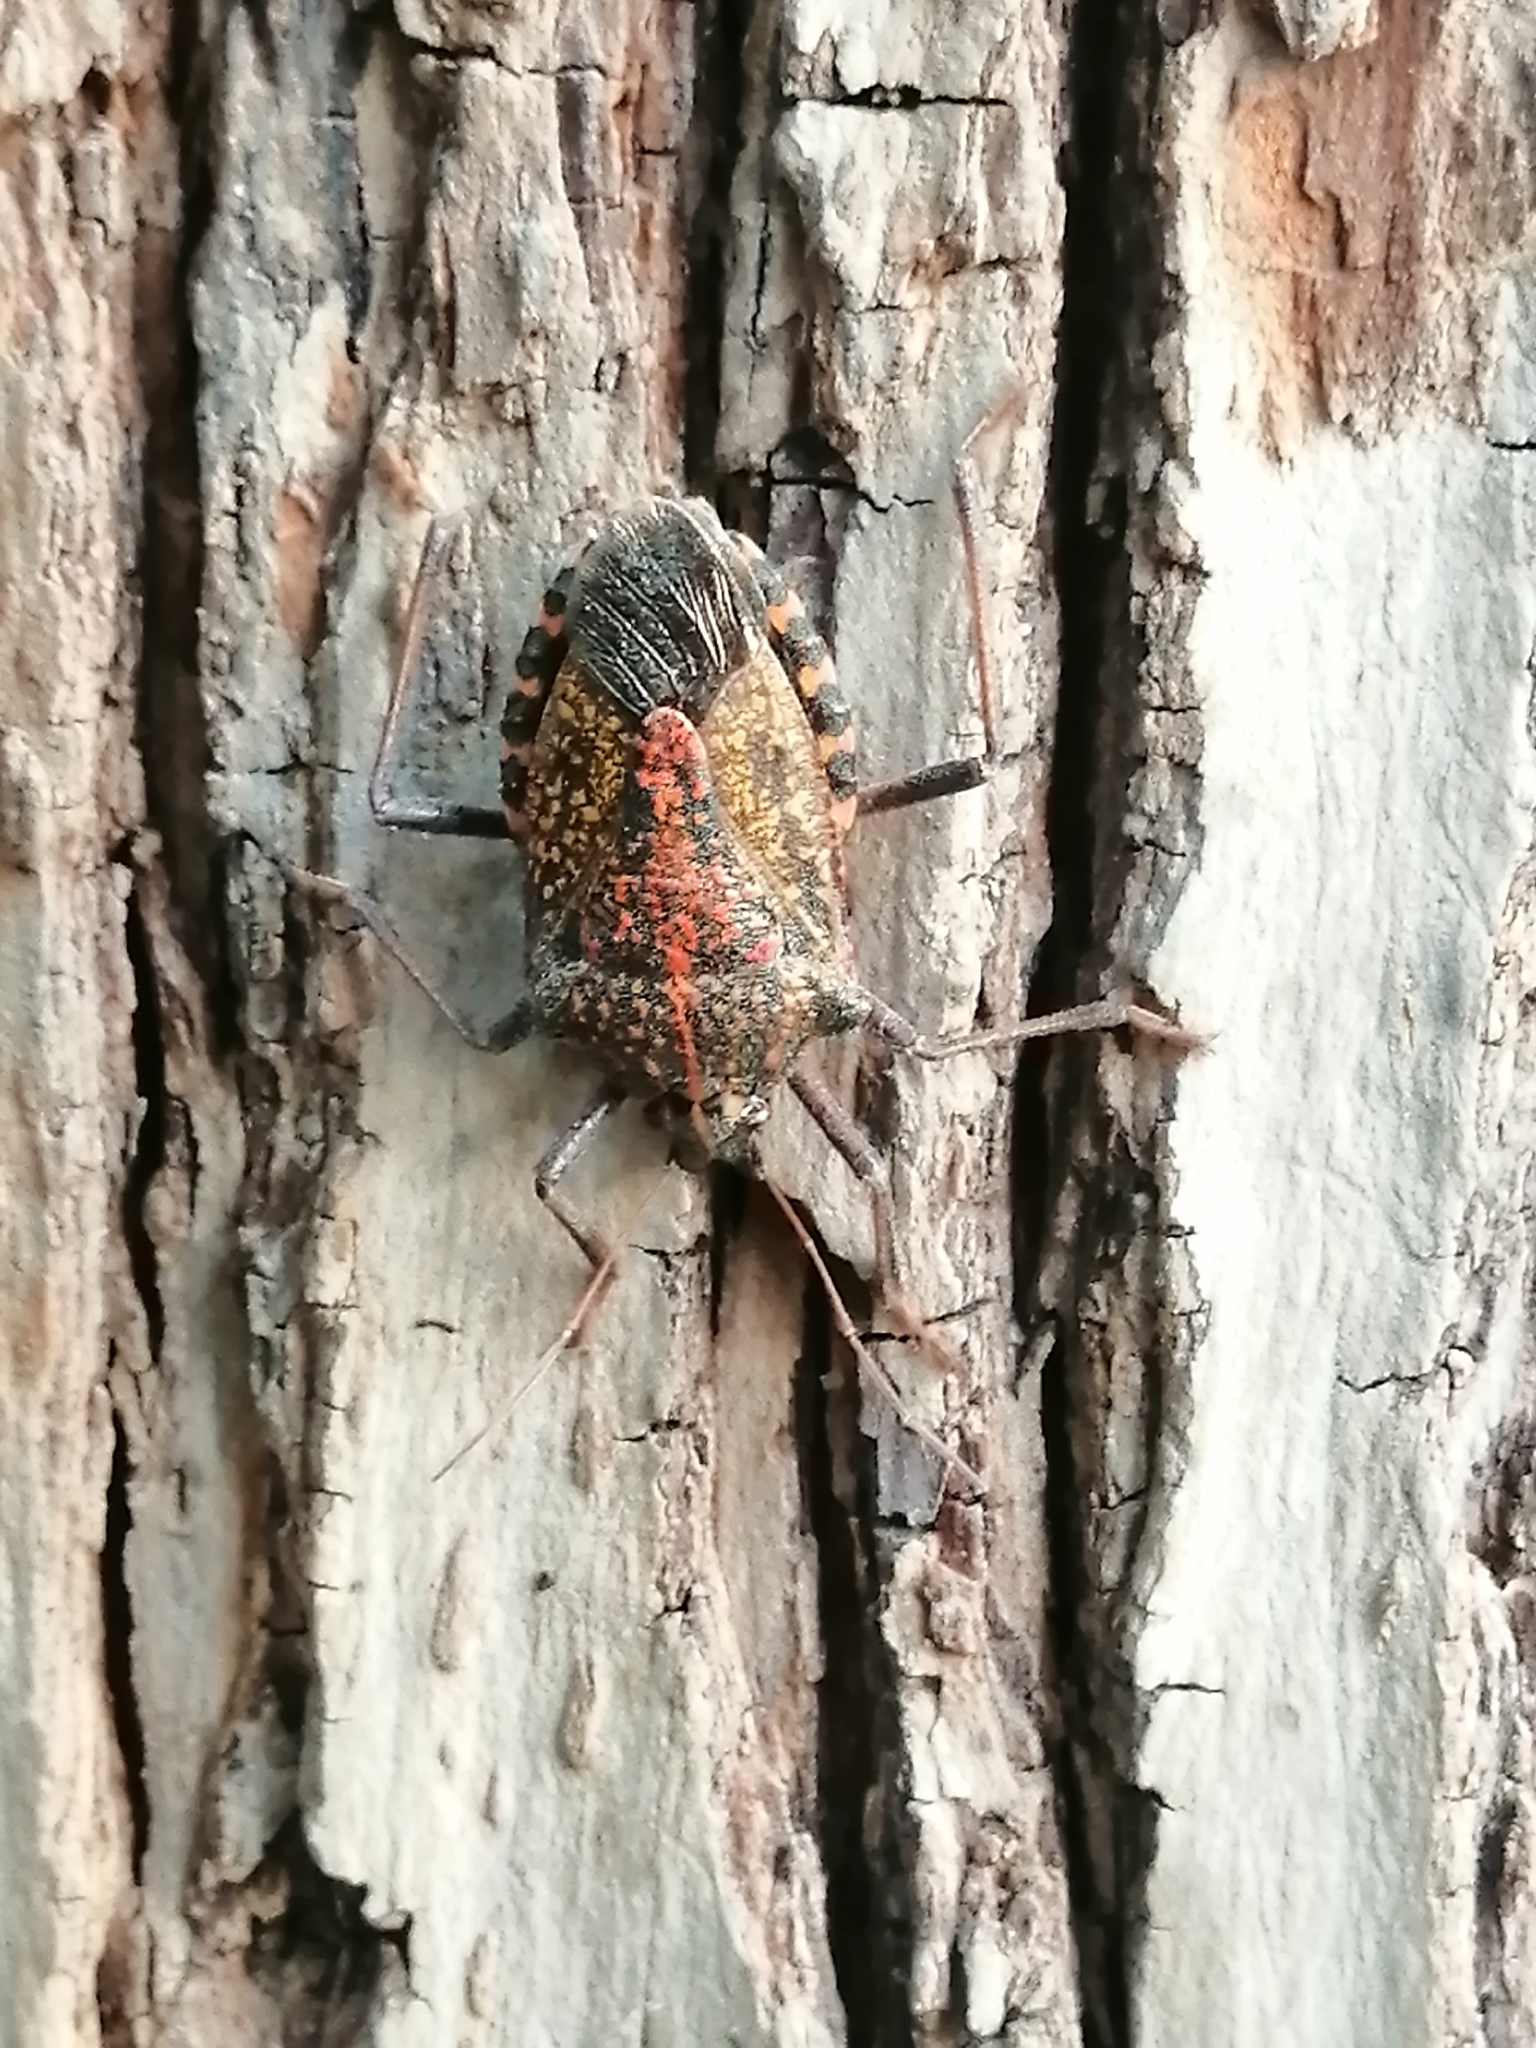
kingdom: Animalia
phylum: Arthropoda
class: Insecta
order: Hemiptera
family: Pentatomidae
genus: Apodiphus
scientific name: Apodiphus amygdali
